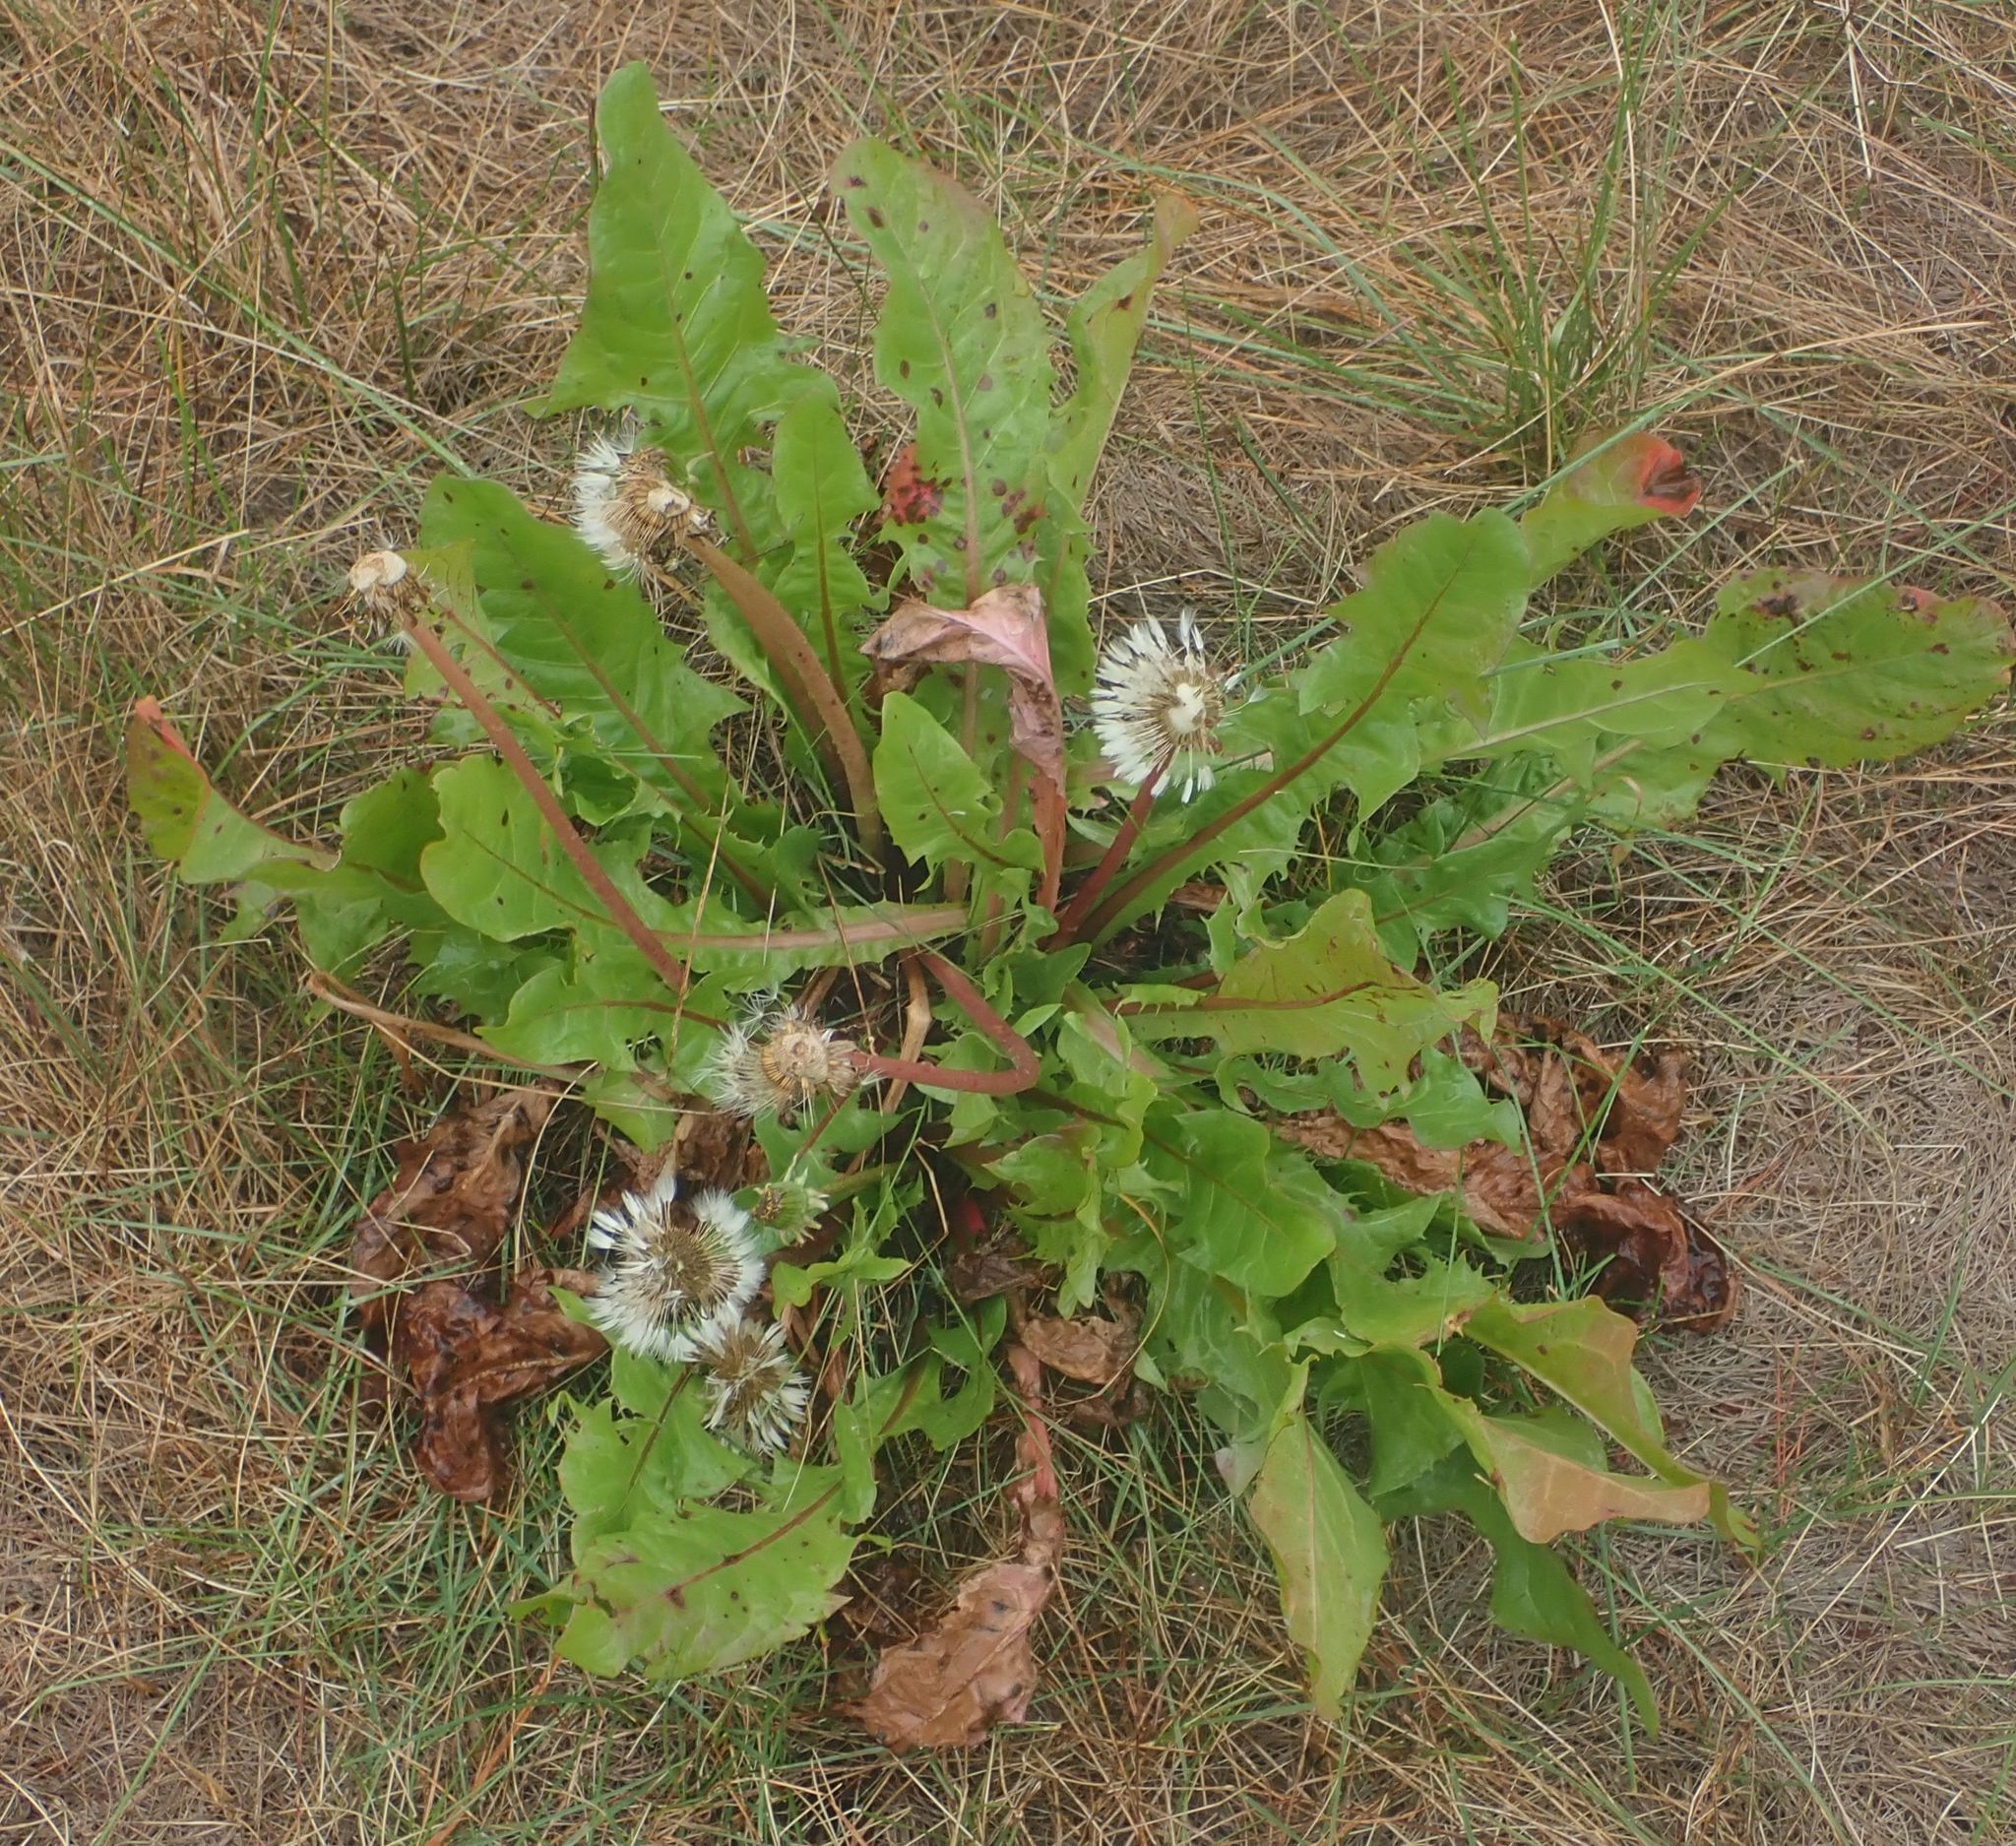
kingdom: Plantae
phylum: Tracheophyta
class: Magnoliopsida
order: Asterales
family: Asteraceae
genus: Taraxacum
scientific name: Taraxacum officinale
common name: Common dandelion
